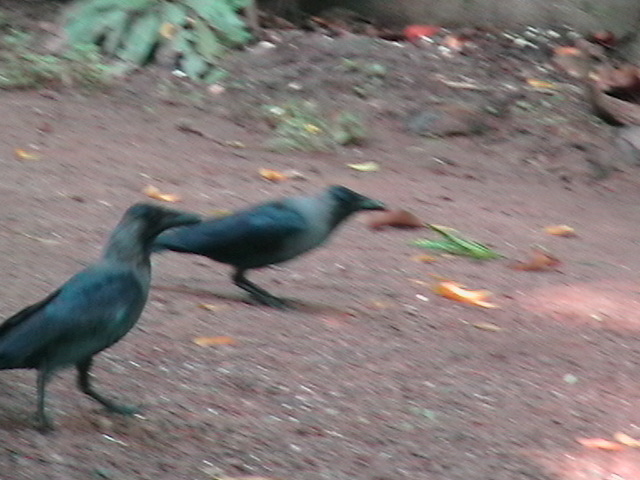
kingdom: Animalia
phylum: Chordata
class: Aves
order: Passeriformes
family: Corvidae
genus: Corvus
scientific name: Corvus splendens
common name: House crow
